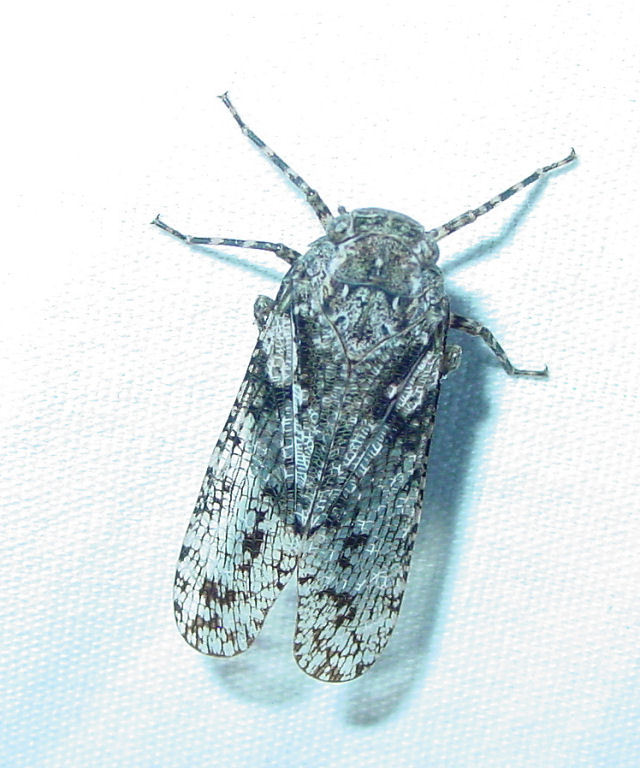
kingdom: Animalia
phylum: Arthropoda
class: Insecta
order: Hemiptera
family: Fulgoridae
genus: Alphina
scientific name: Alphina glauca
